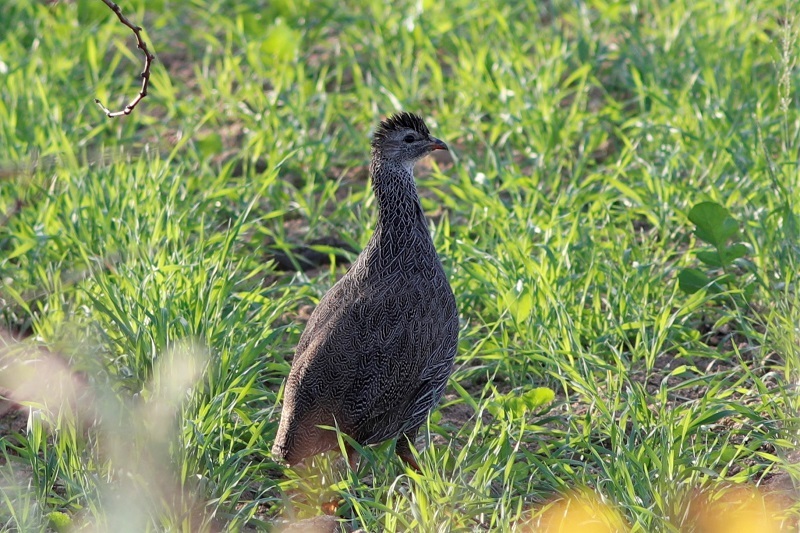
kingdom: Animalia
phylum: Chordata
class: Aves
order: Galliformes
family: Phasianidae
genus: Pternistis
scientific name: Pternistis capensis
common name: Cape spurfowl
